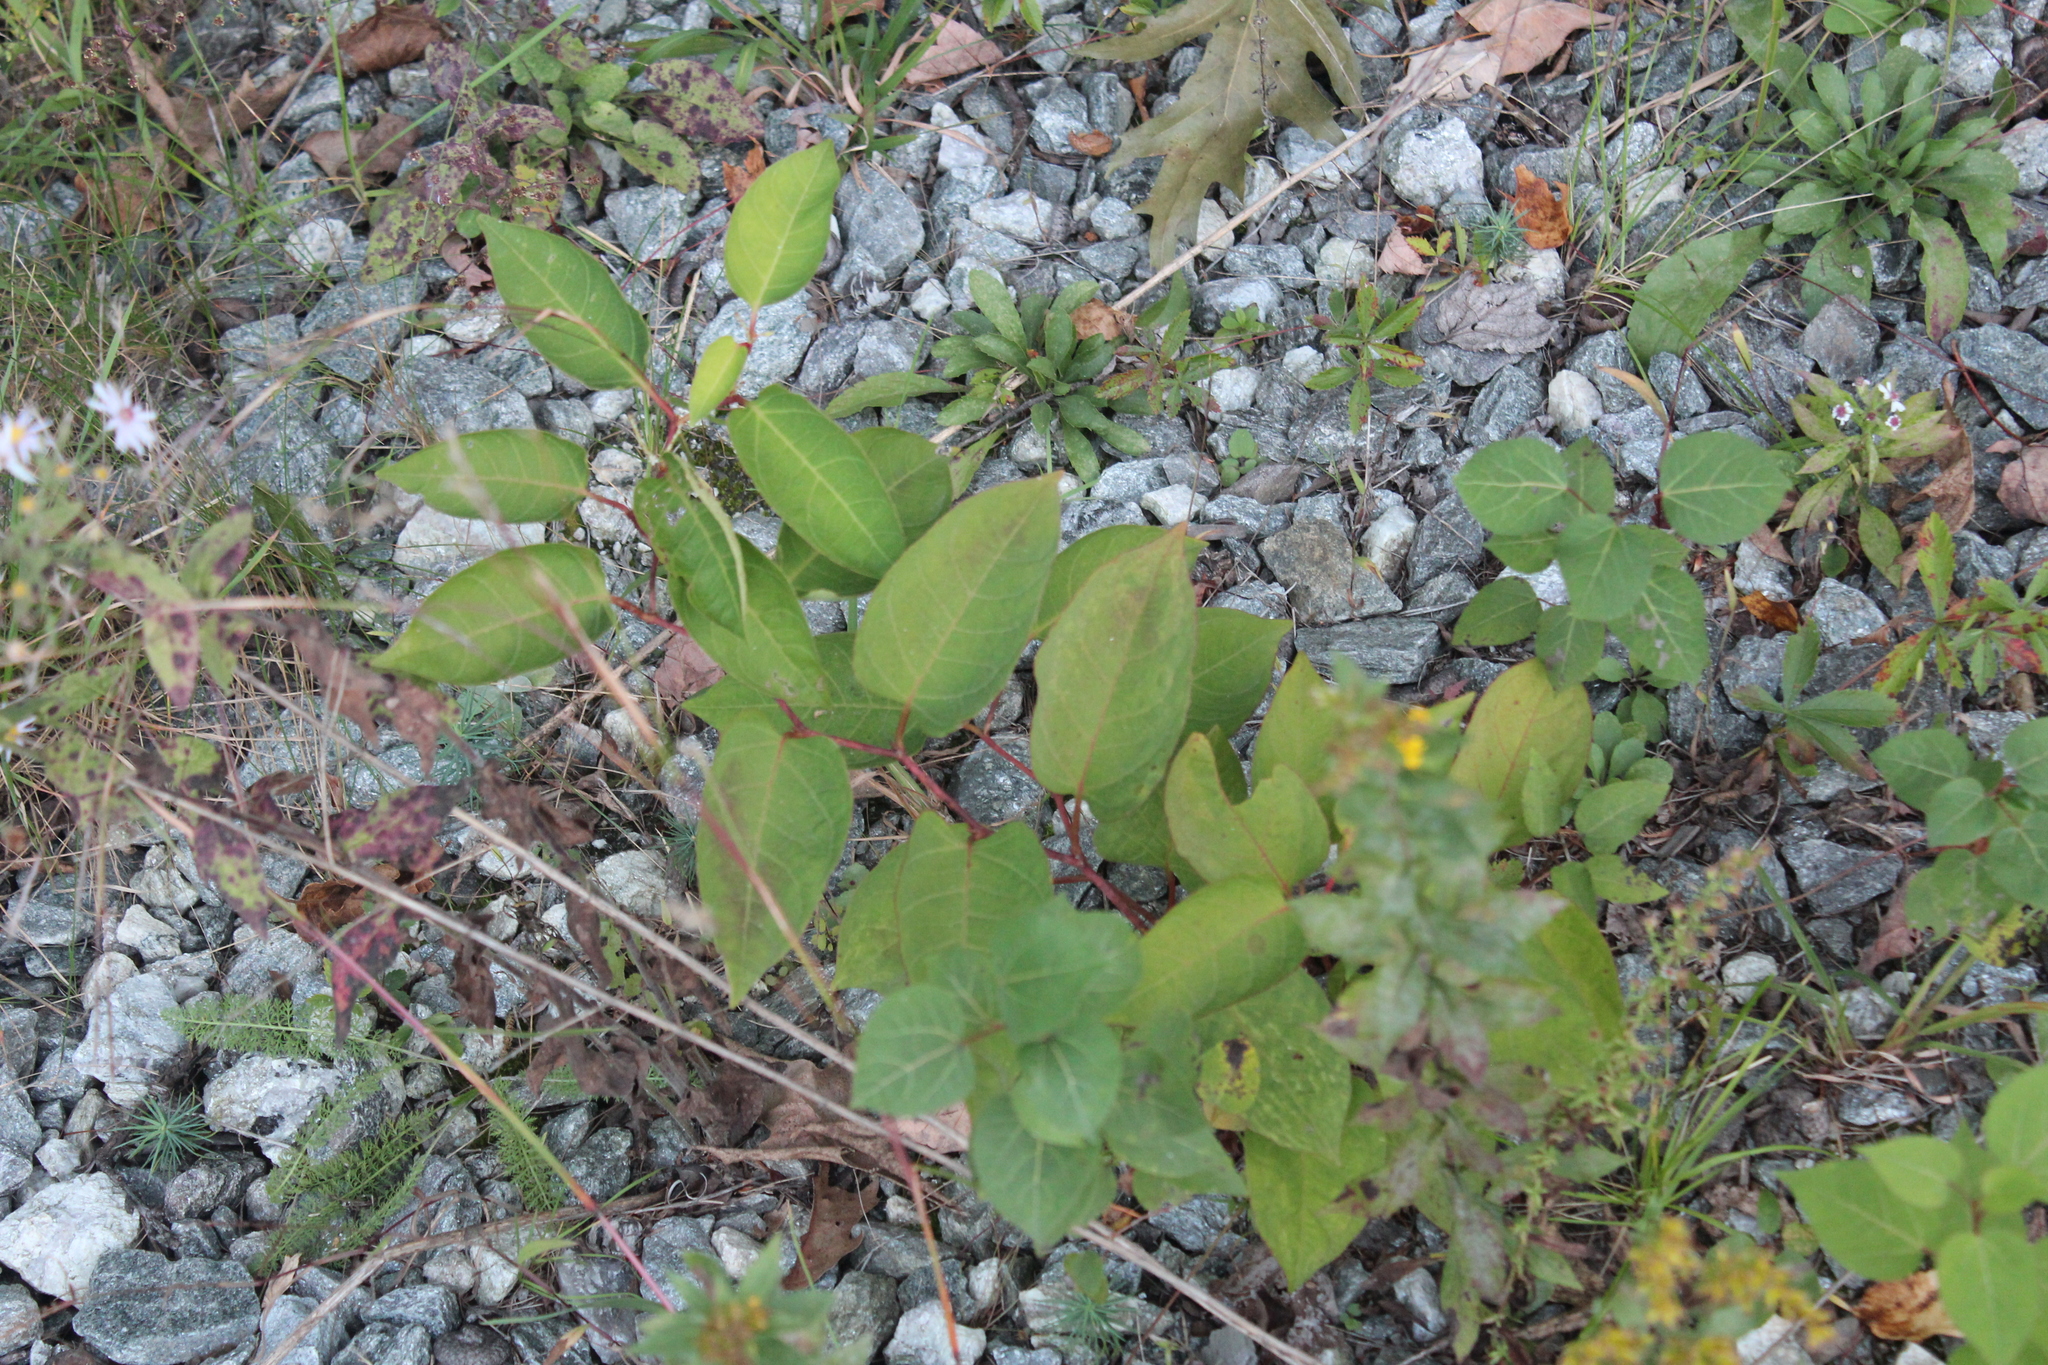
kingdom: Plantae
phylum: Tracheophyta
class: Magnoliopsida
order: Caryophyllales
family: Polygonaceae
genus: Reynoutria
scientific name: Reynoutria japonica
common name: Japanese knotweed
